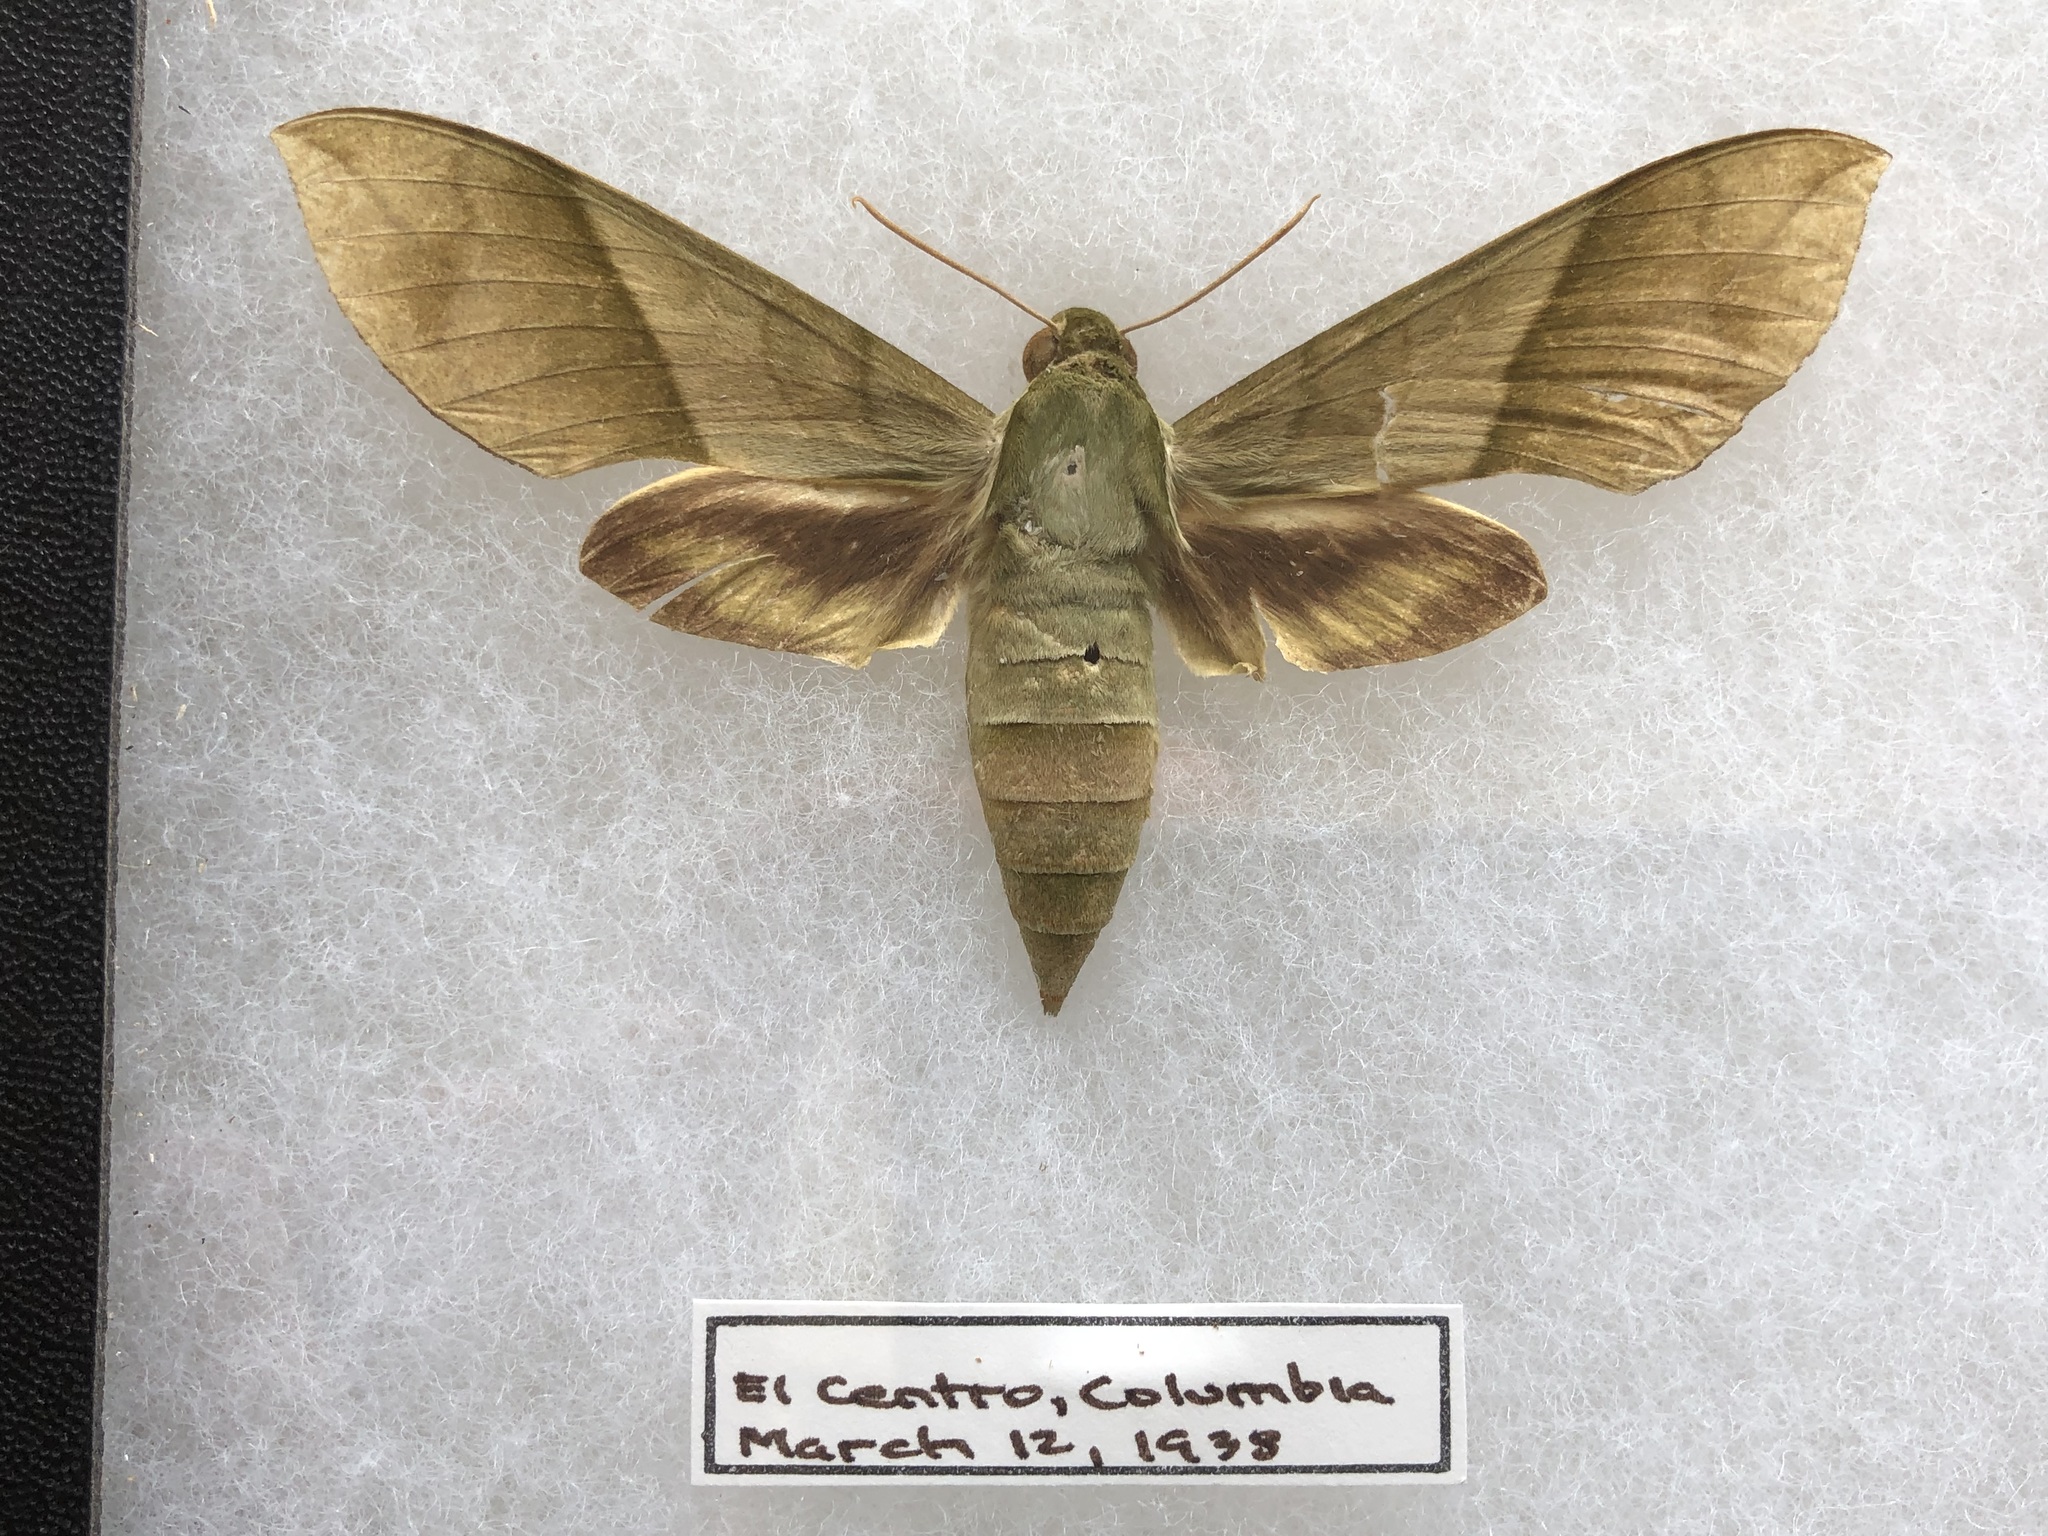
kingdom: Animalia
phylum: Arthropoda
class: Insecta
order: Lepidoptera
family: Sphingidae
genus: Xylophanes
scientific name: Xylophanes tyndarus
